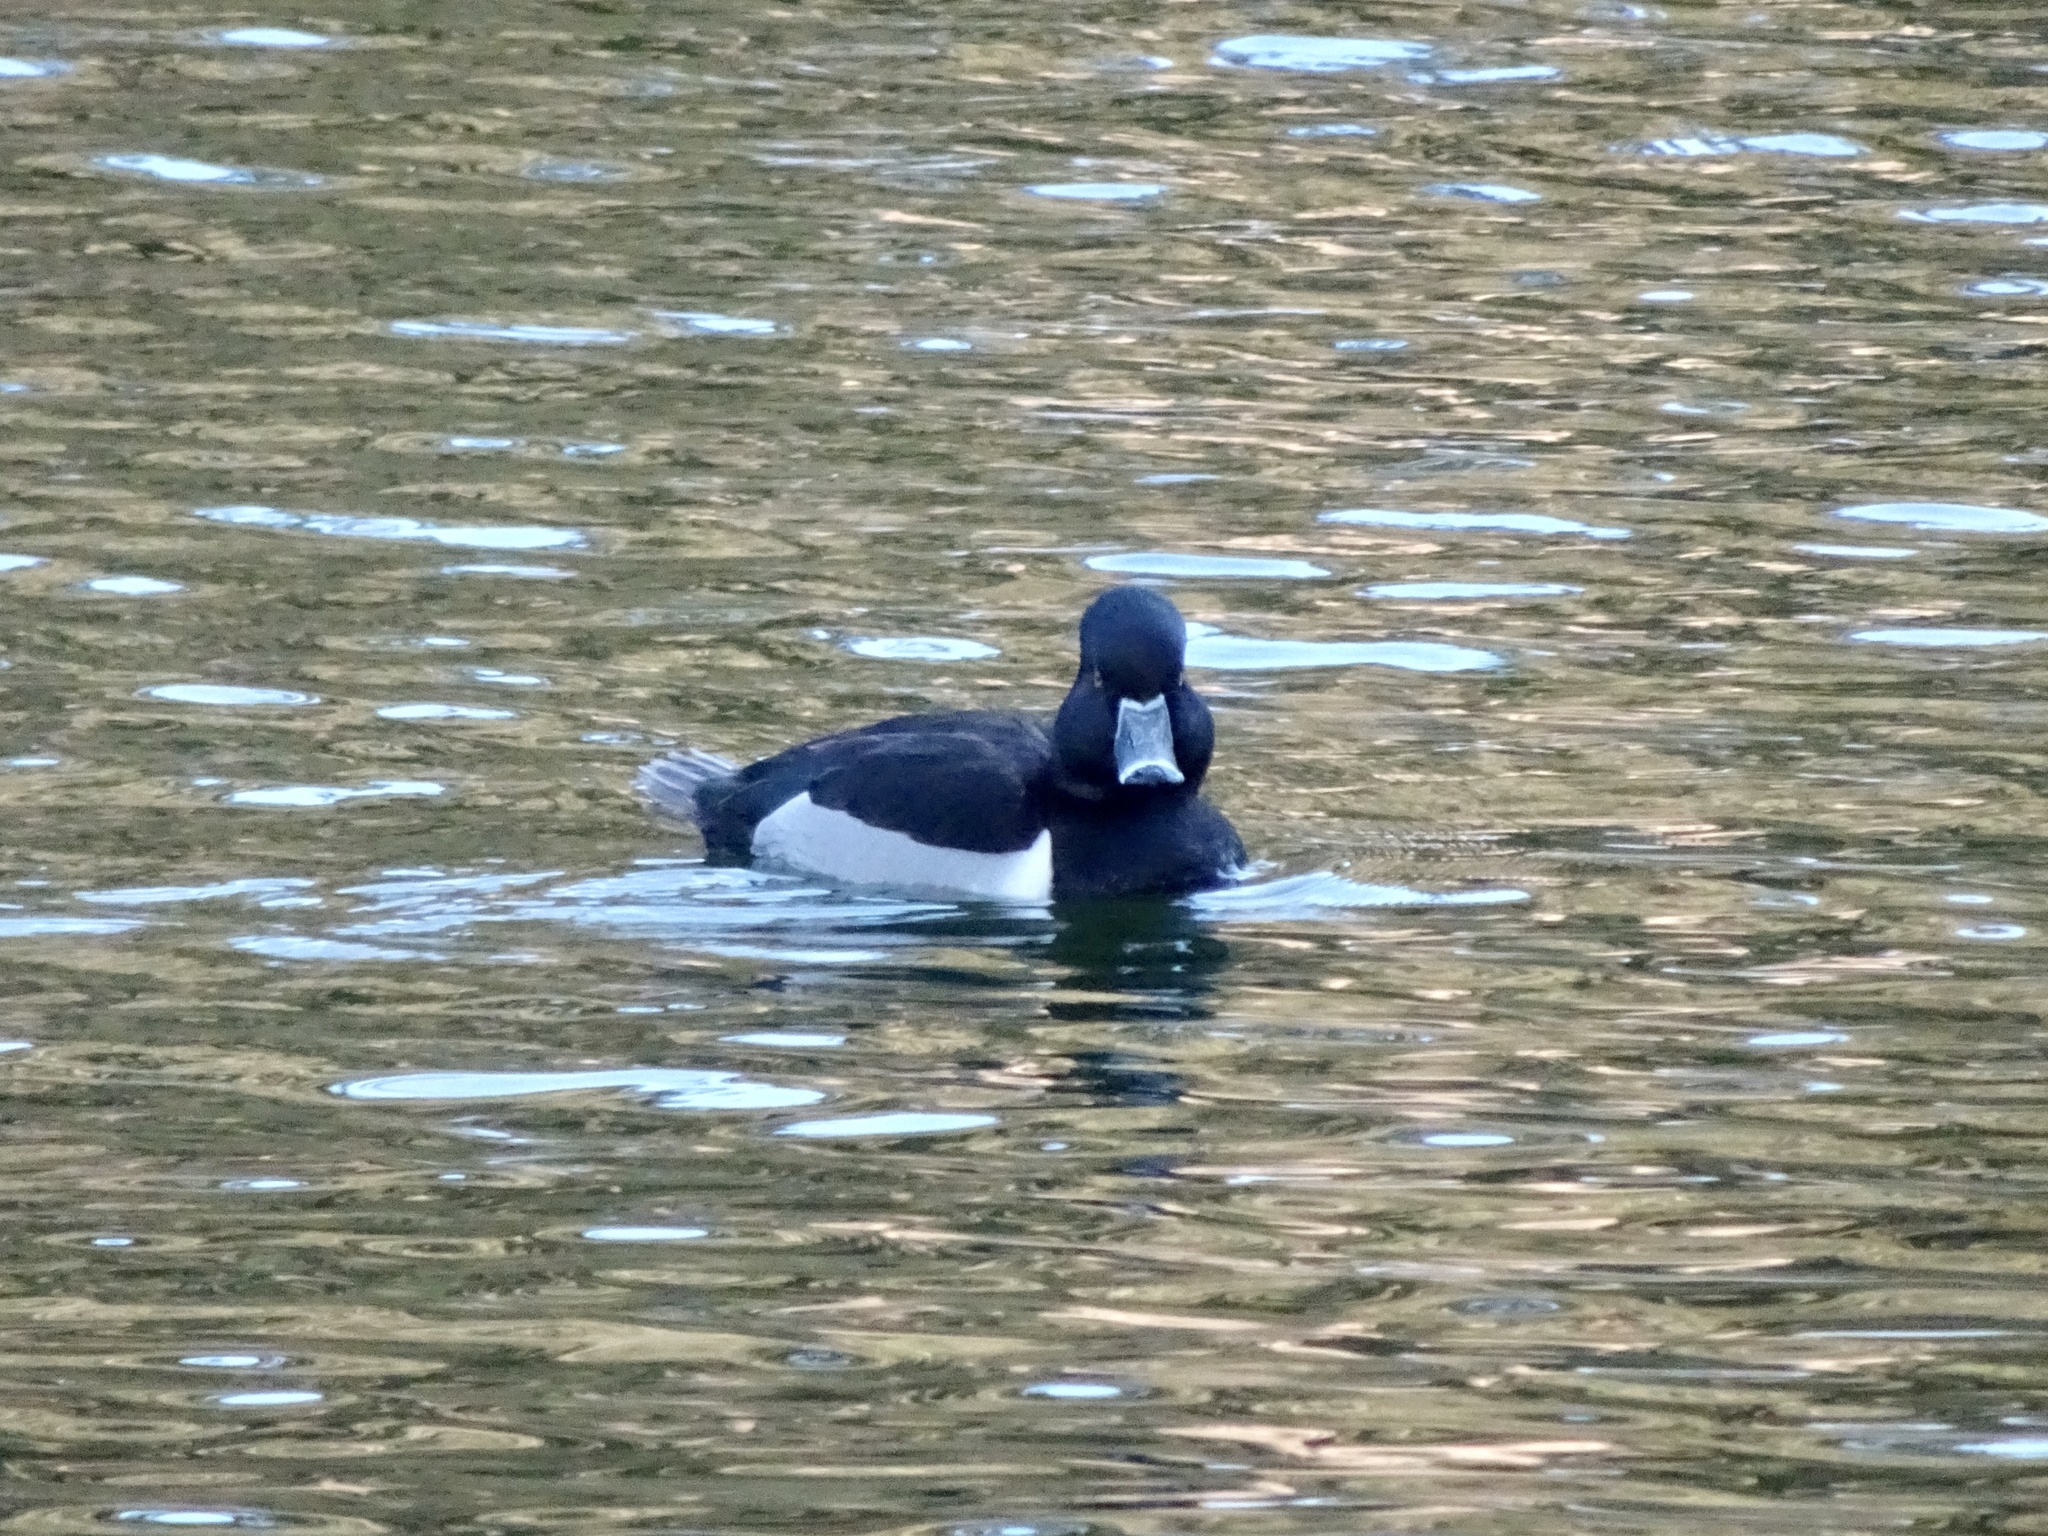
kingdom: Animalia
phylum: Chordata
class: Aves
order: Anseriformes
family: Anatidae
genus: Aythya
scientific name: Aythya collaris
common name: Ring-necked duck
